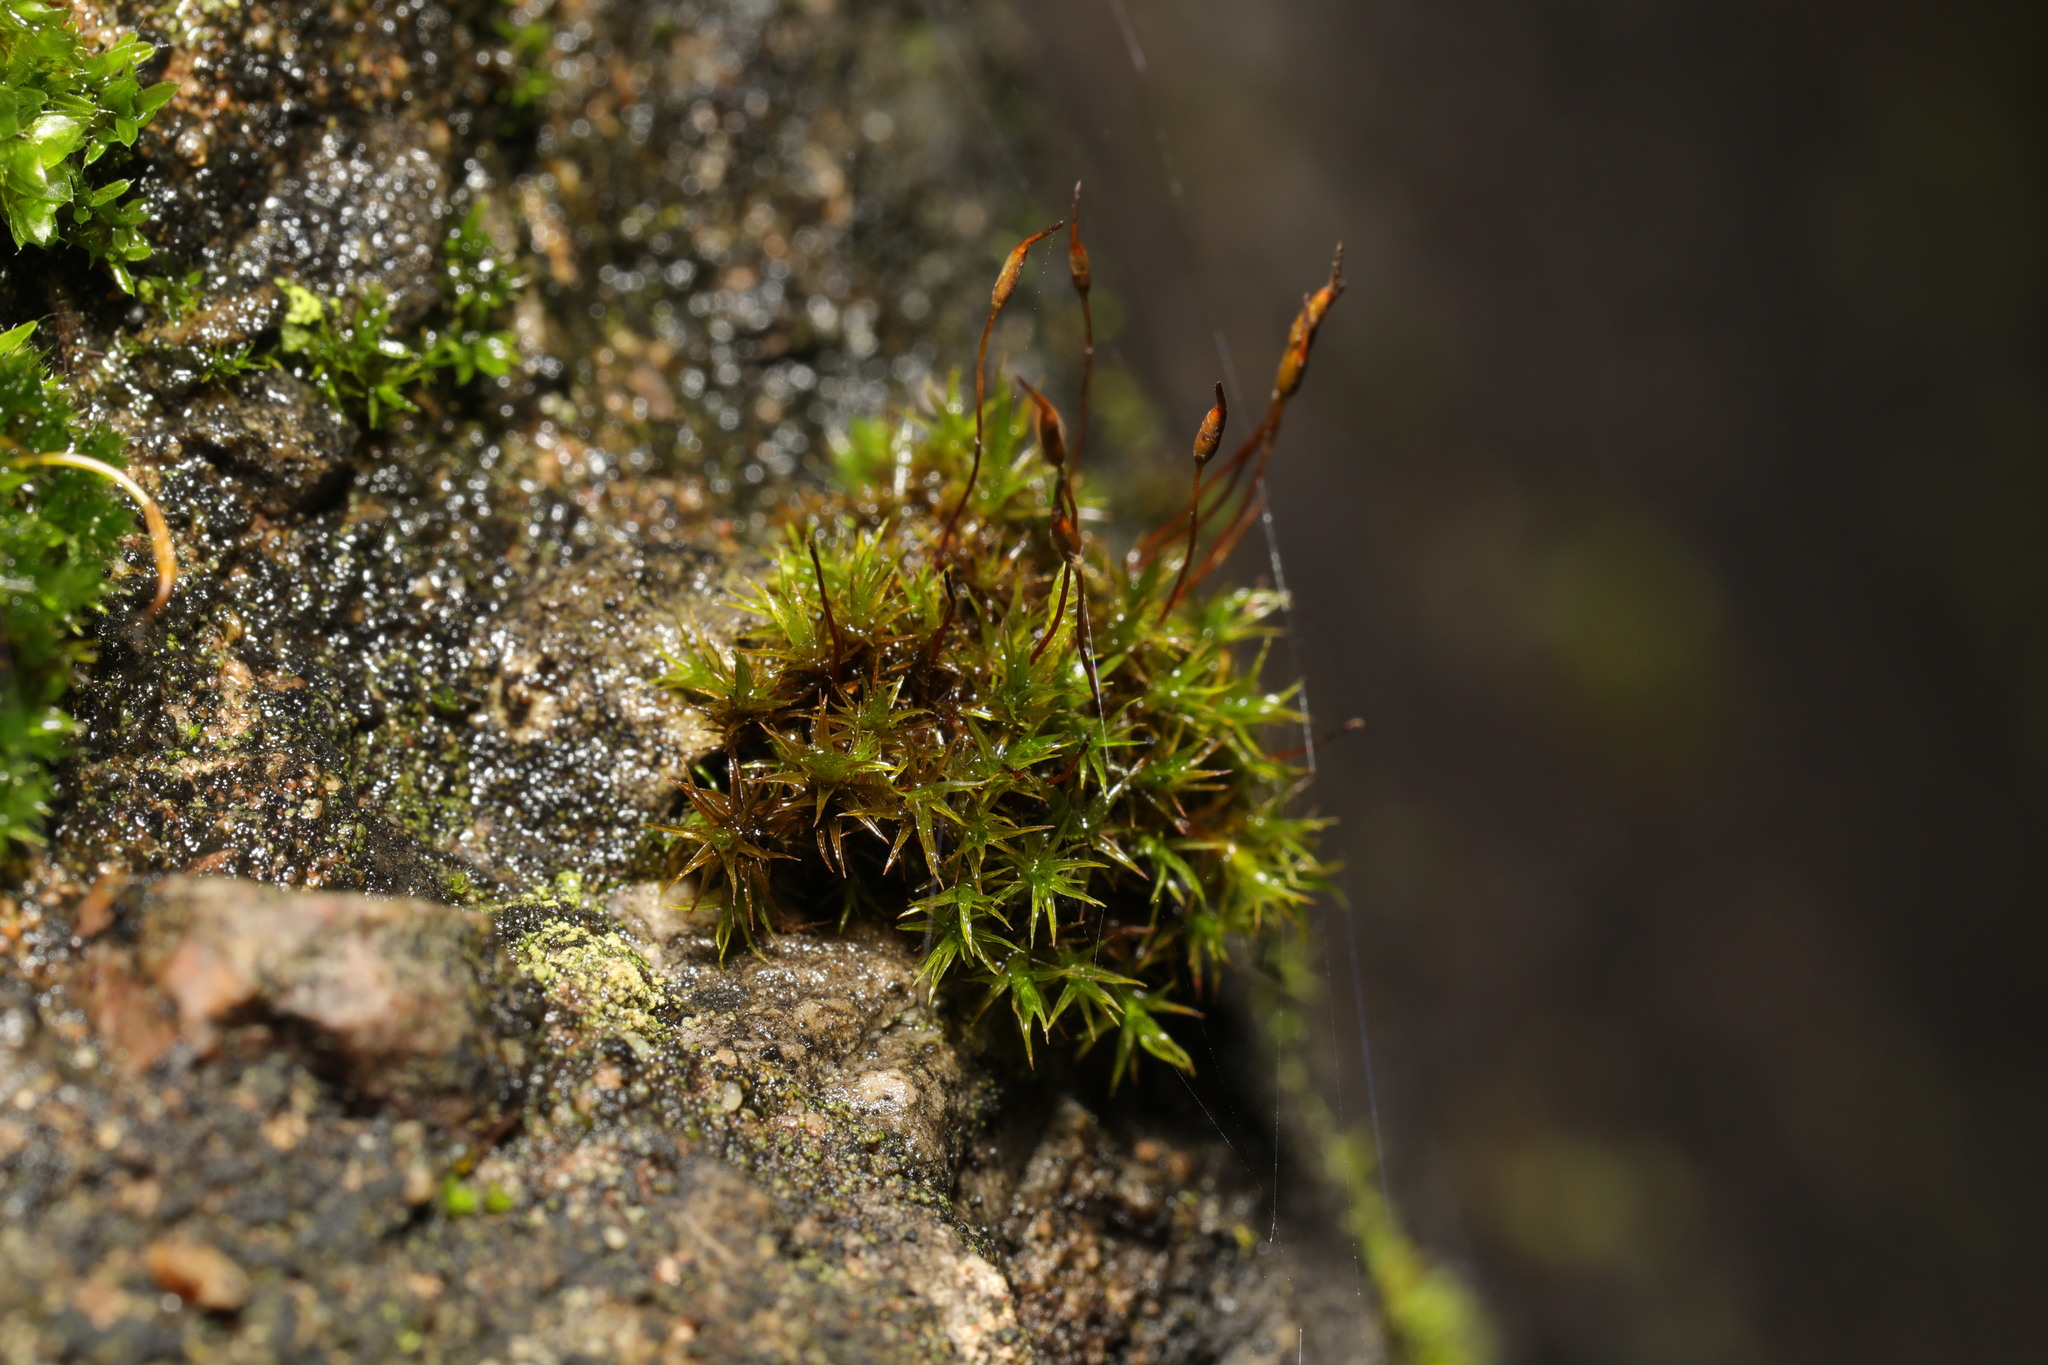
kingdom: Plantae
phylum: Bryophyta
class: Bryopsida
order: Pottiales
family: Pottiaceae
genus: Tortula
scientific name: Tortula muralis
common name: Wall screw-moss
